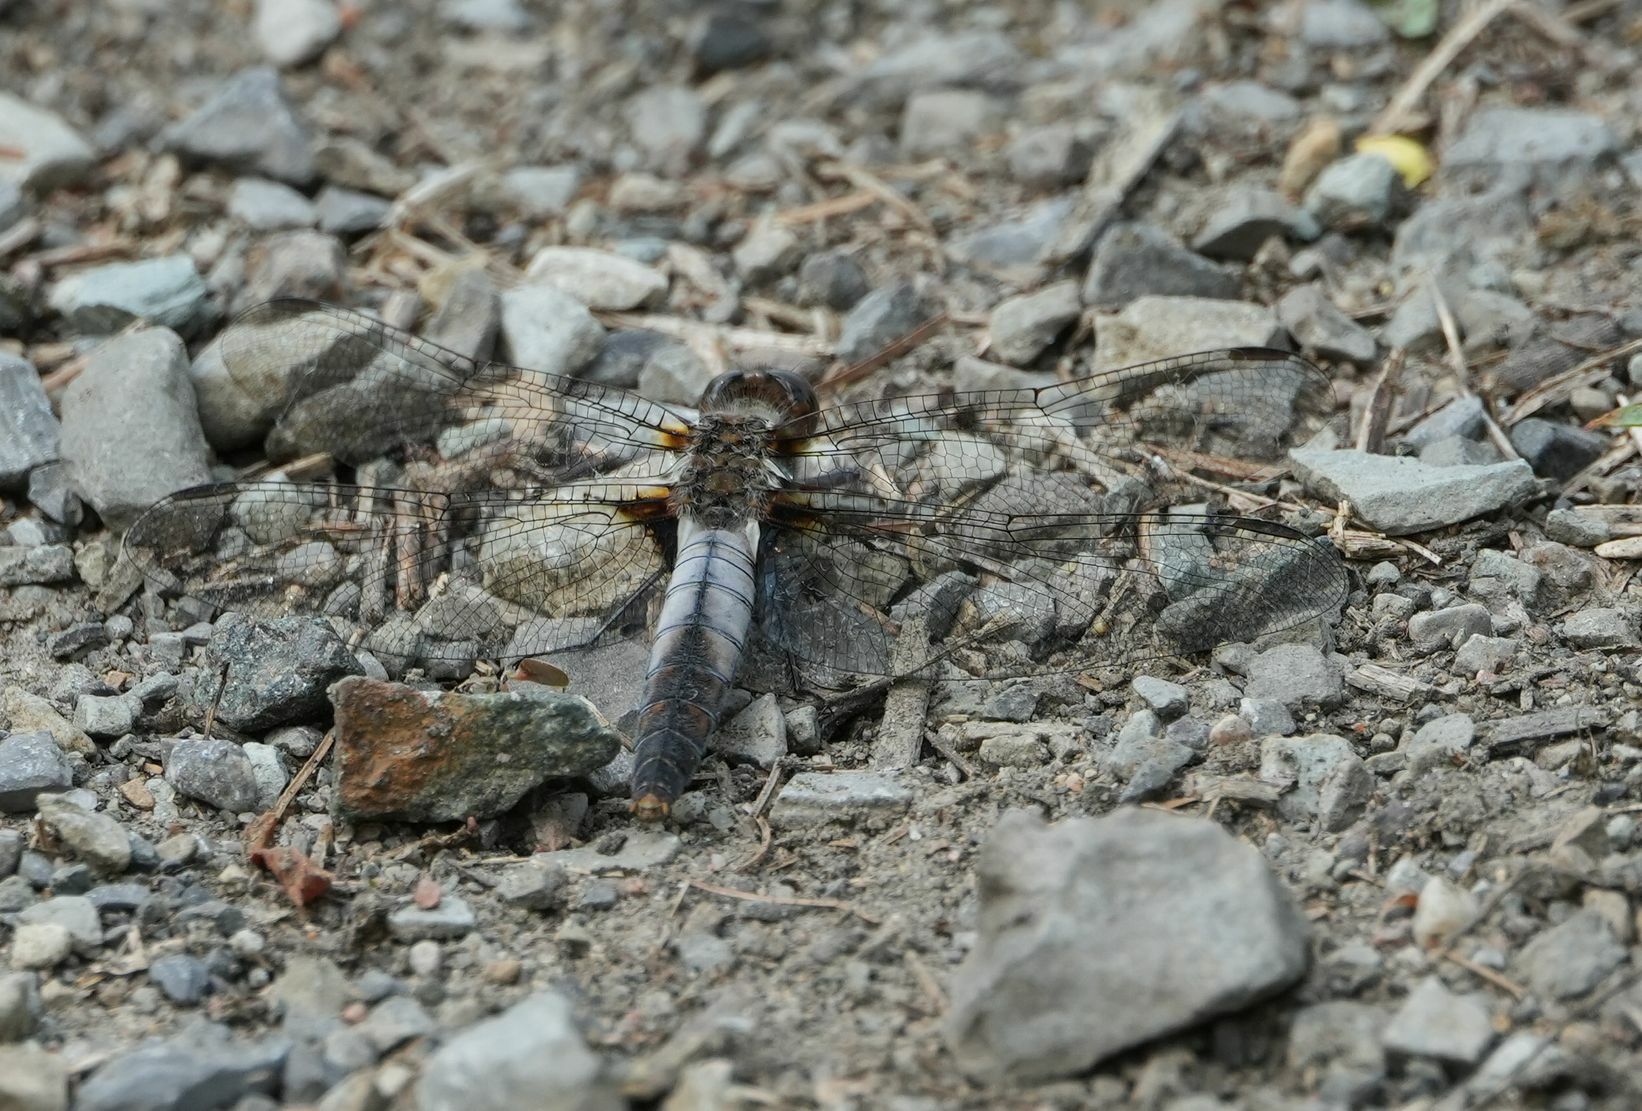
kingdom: Animalia
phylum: Arthropoda
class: Insecta
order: Odonata
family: Libellulidae
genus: Ladona
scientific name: Ladona julia
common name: Chalk-fronted corporal
